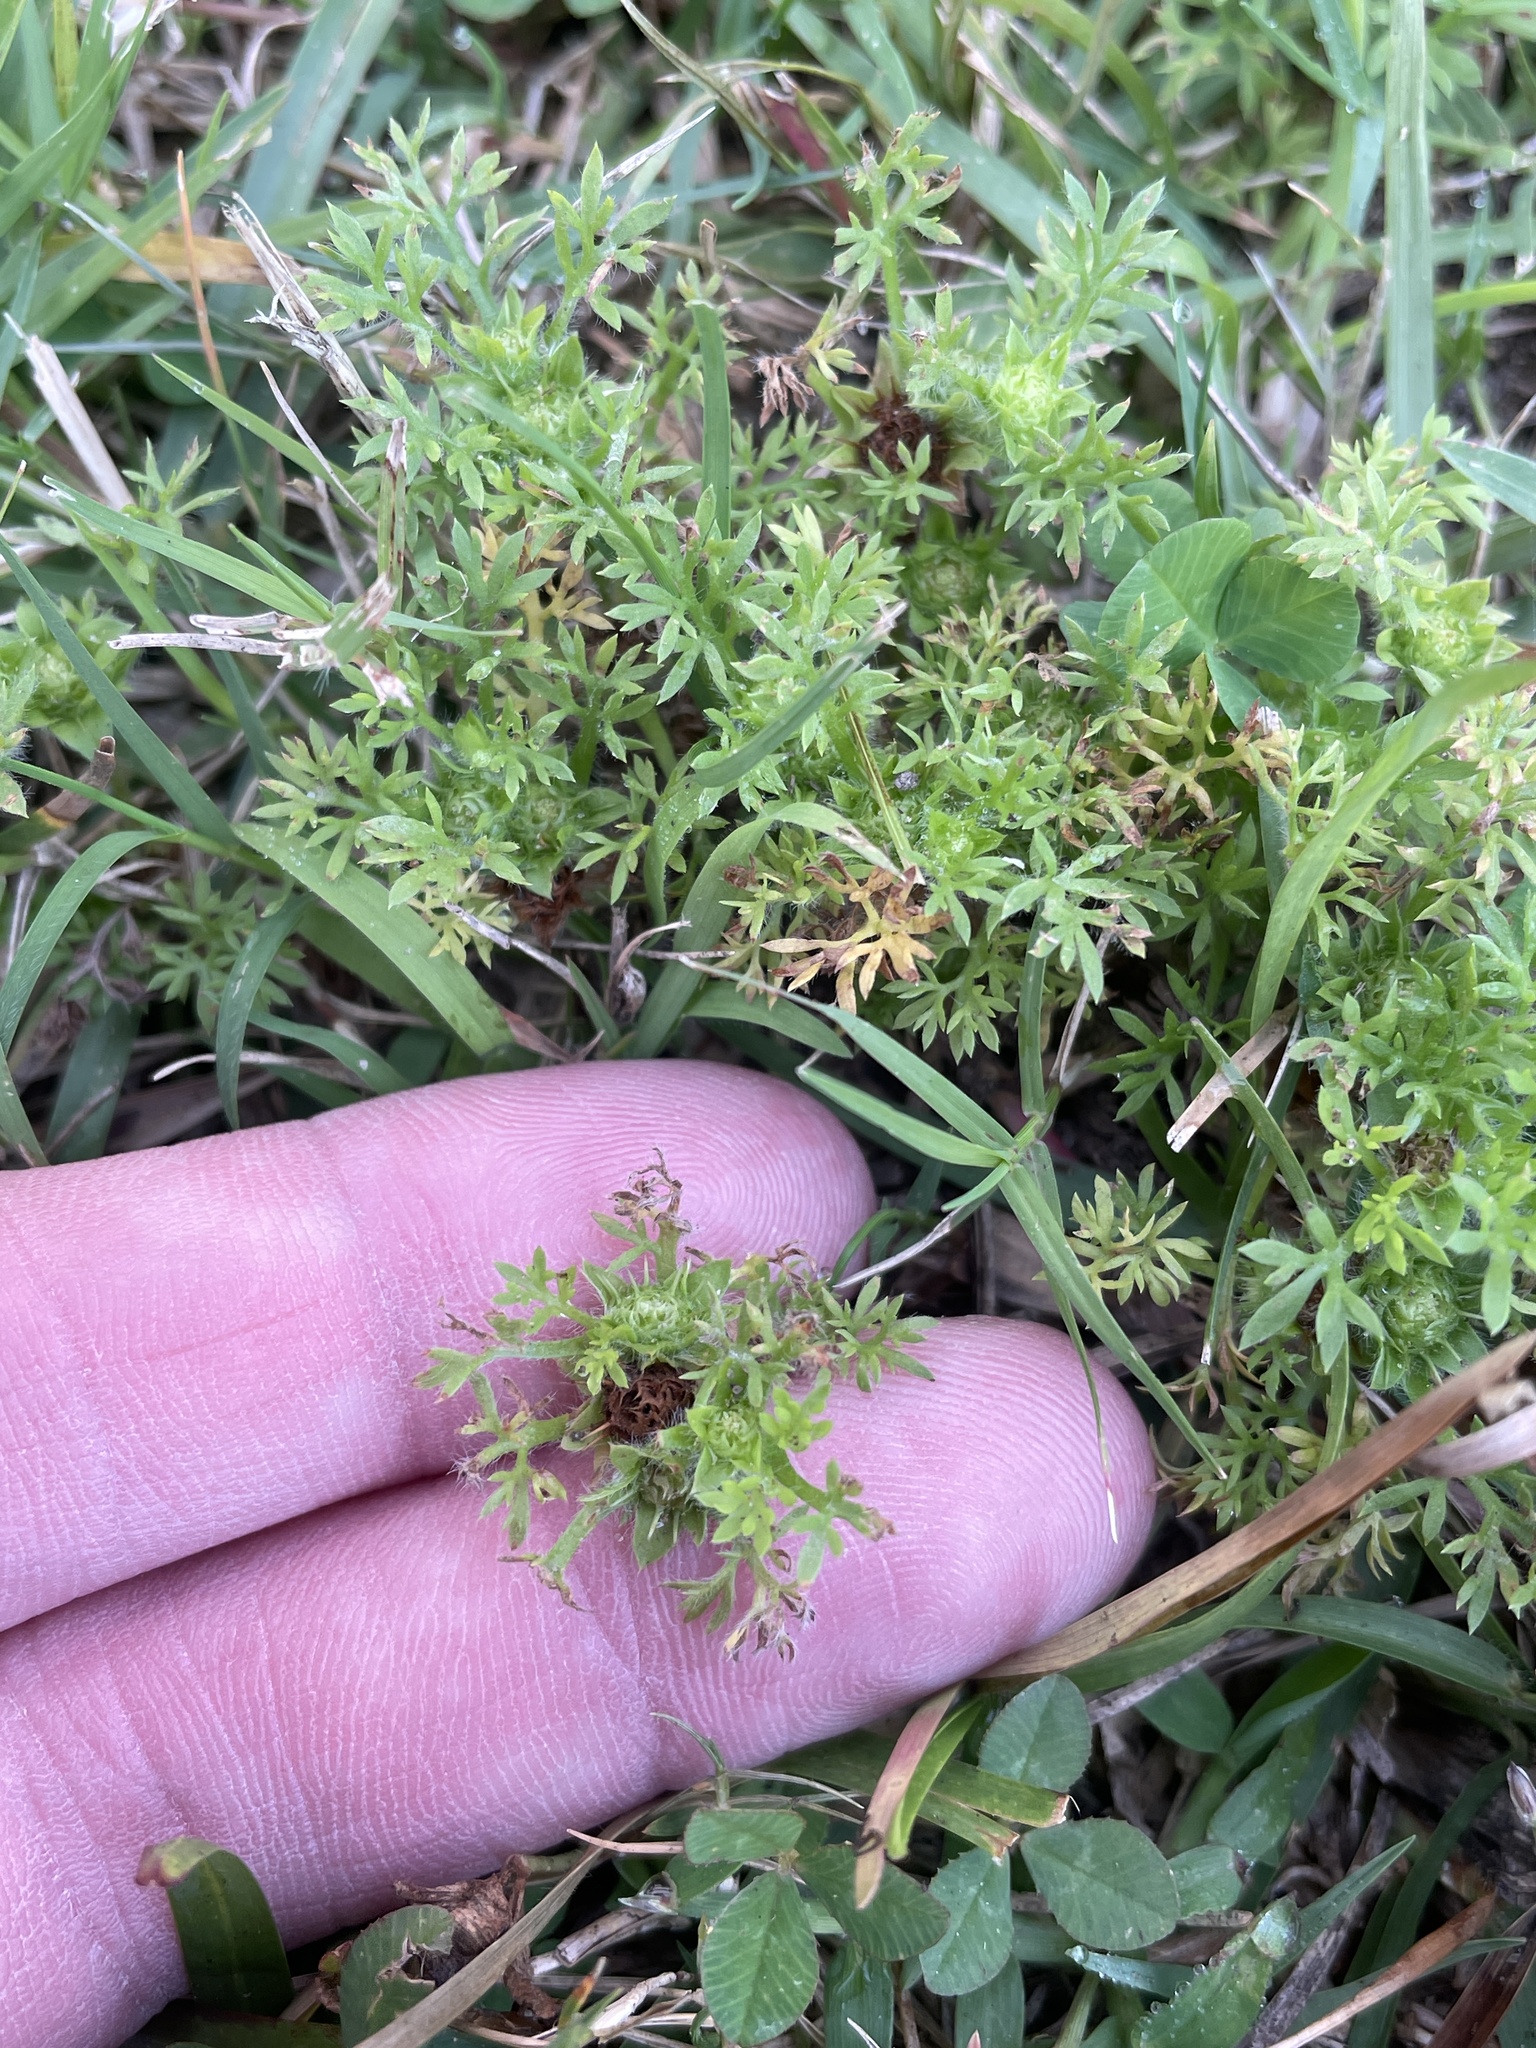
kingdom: Plantae
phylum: Tracheophyta
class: Magnoliopsida
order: Asterales
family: Asteraceae
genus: Soliva
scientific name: Soliva sessilis
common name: Field burrweed
